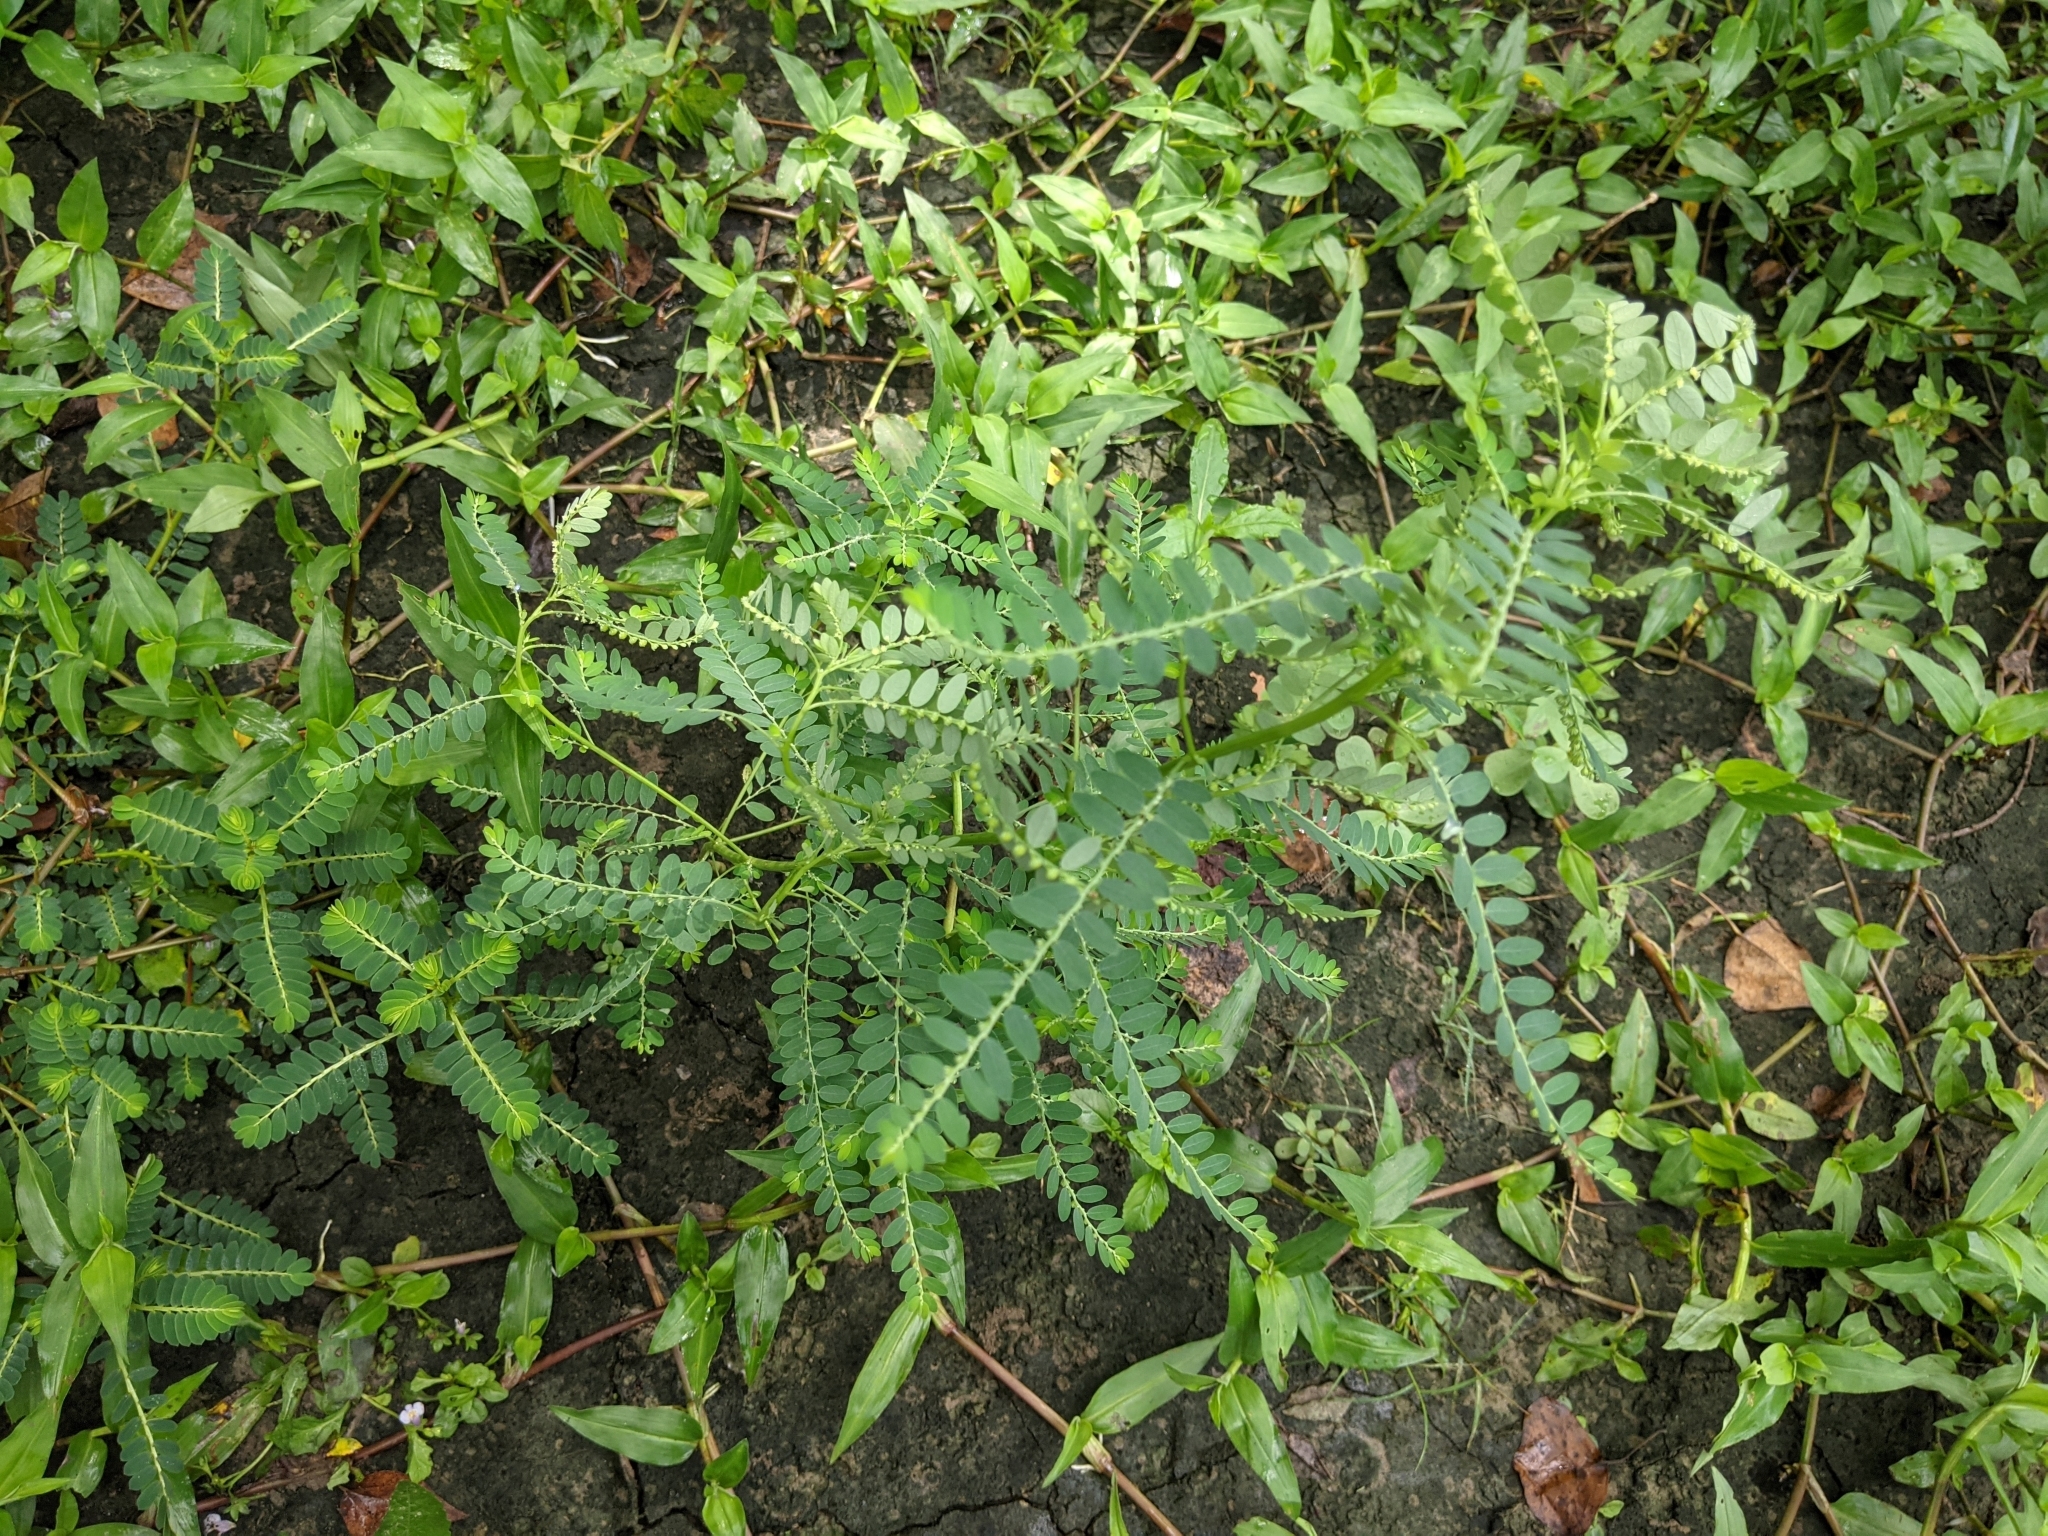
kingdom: Plantae
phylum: Tracheophyta
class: Magnoliopsida
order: Malpighiales
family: Phyllanthaceae
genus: Phyllanthus
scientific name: Phyllanthus urinaria
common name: Chamber bitter
